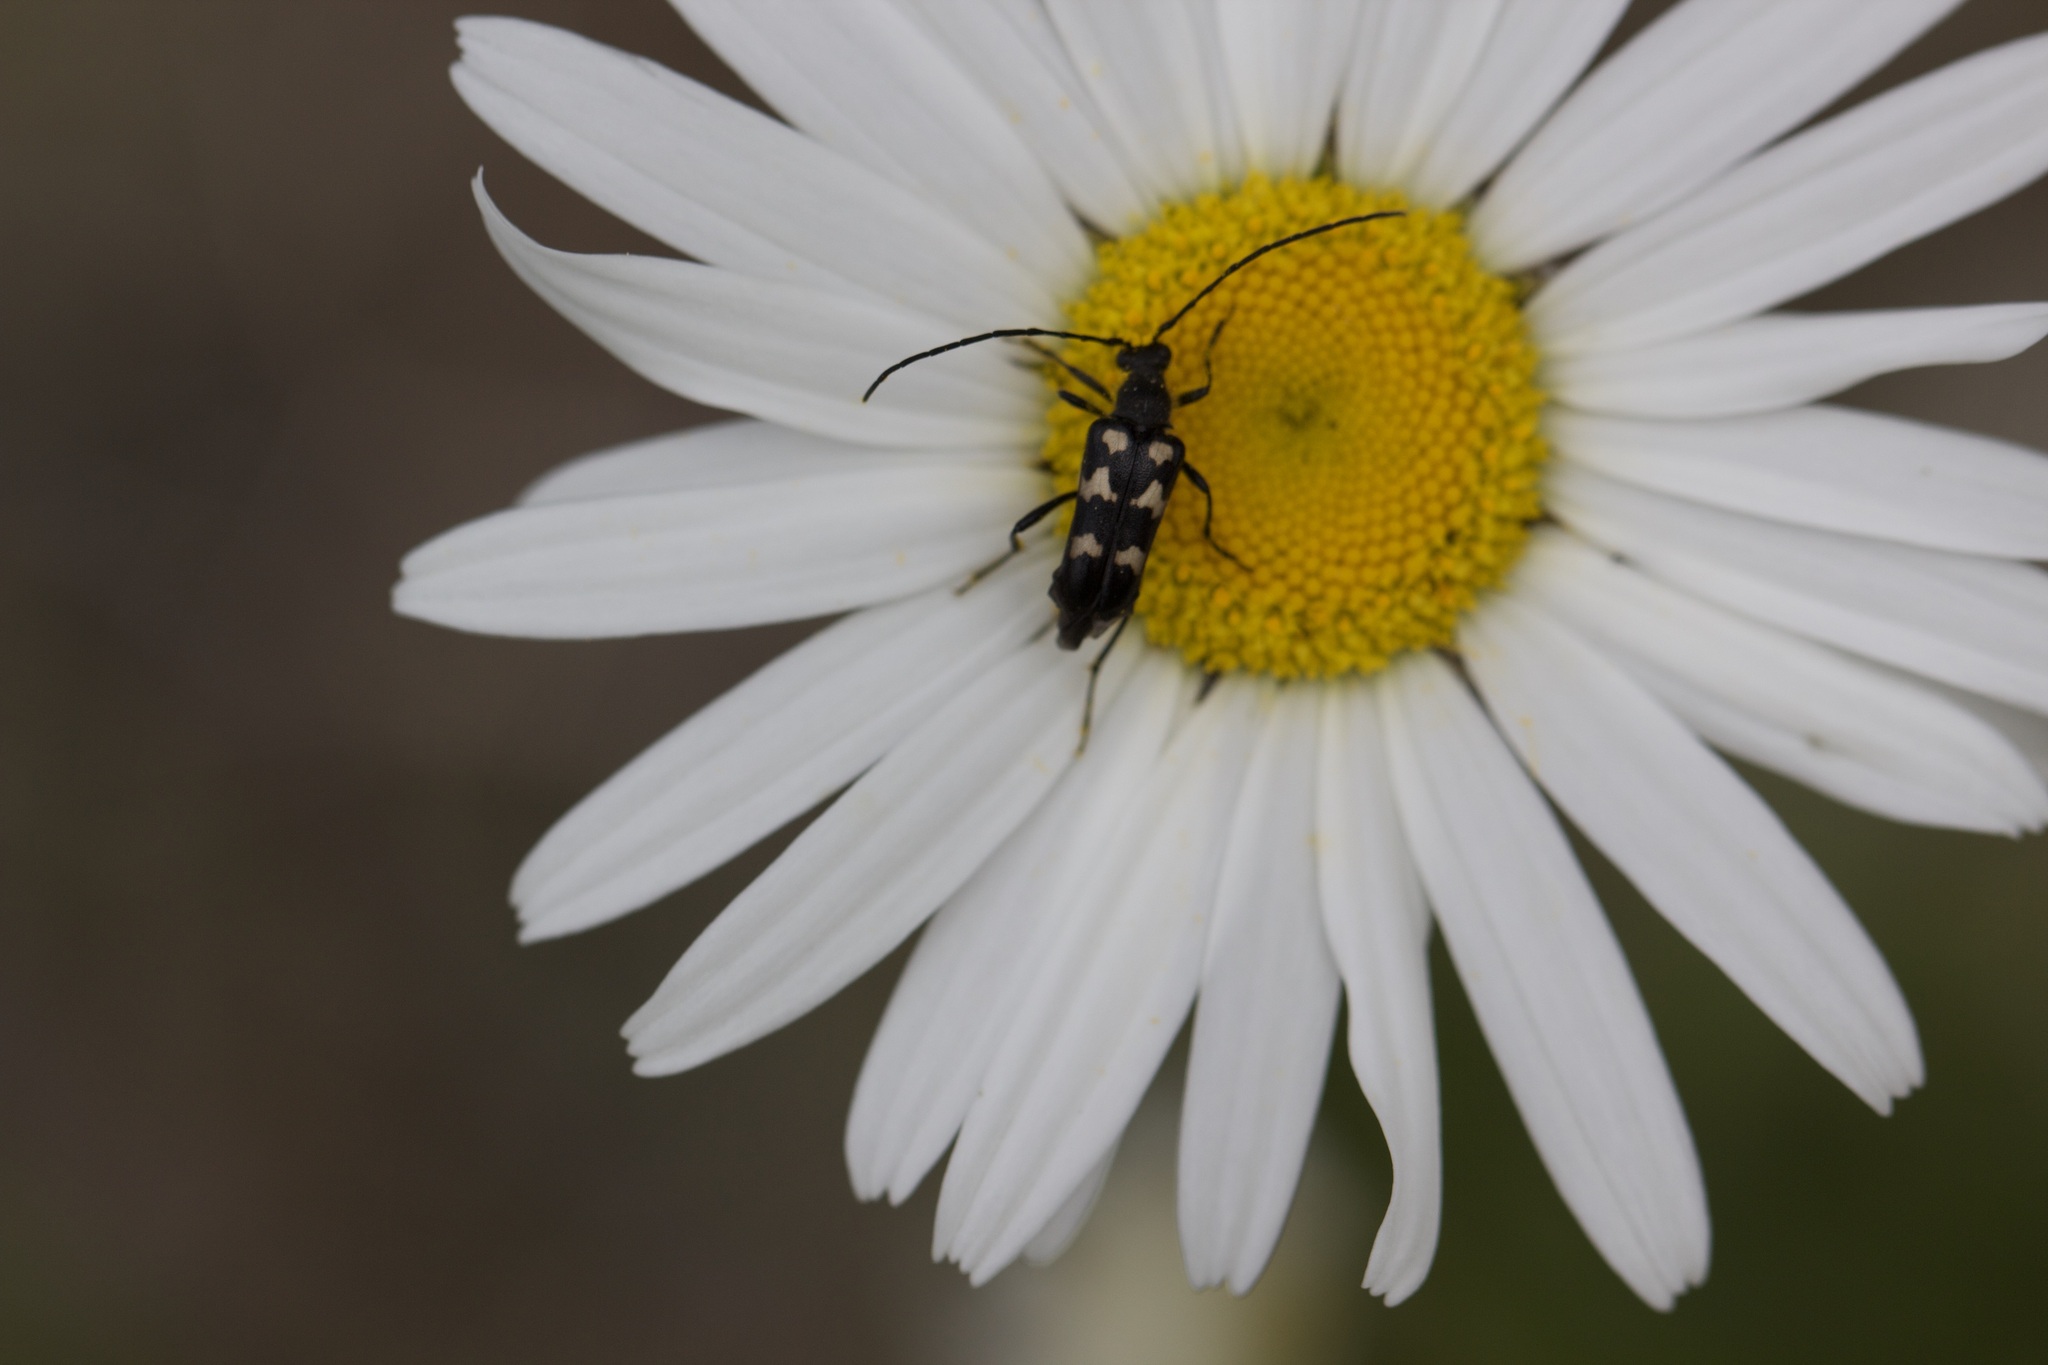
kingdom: Animalia
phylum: Arthropoda
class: Insecta
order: Coleoptera
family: Cerambycidae
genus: Judolia
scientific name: Judolia montivagans
